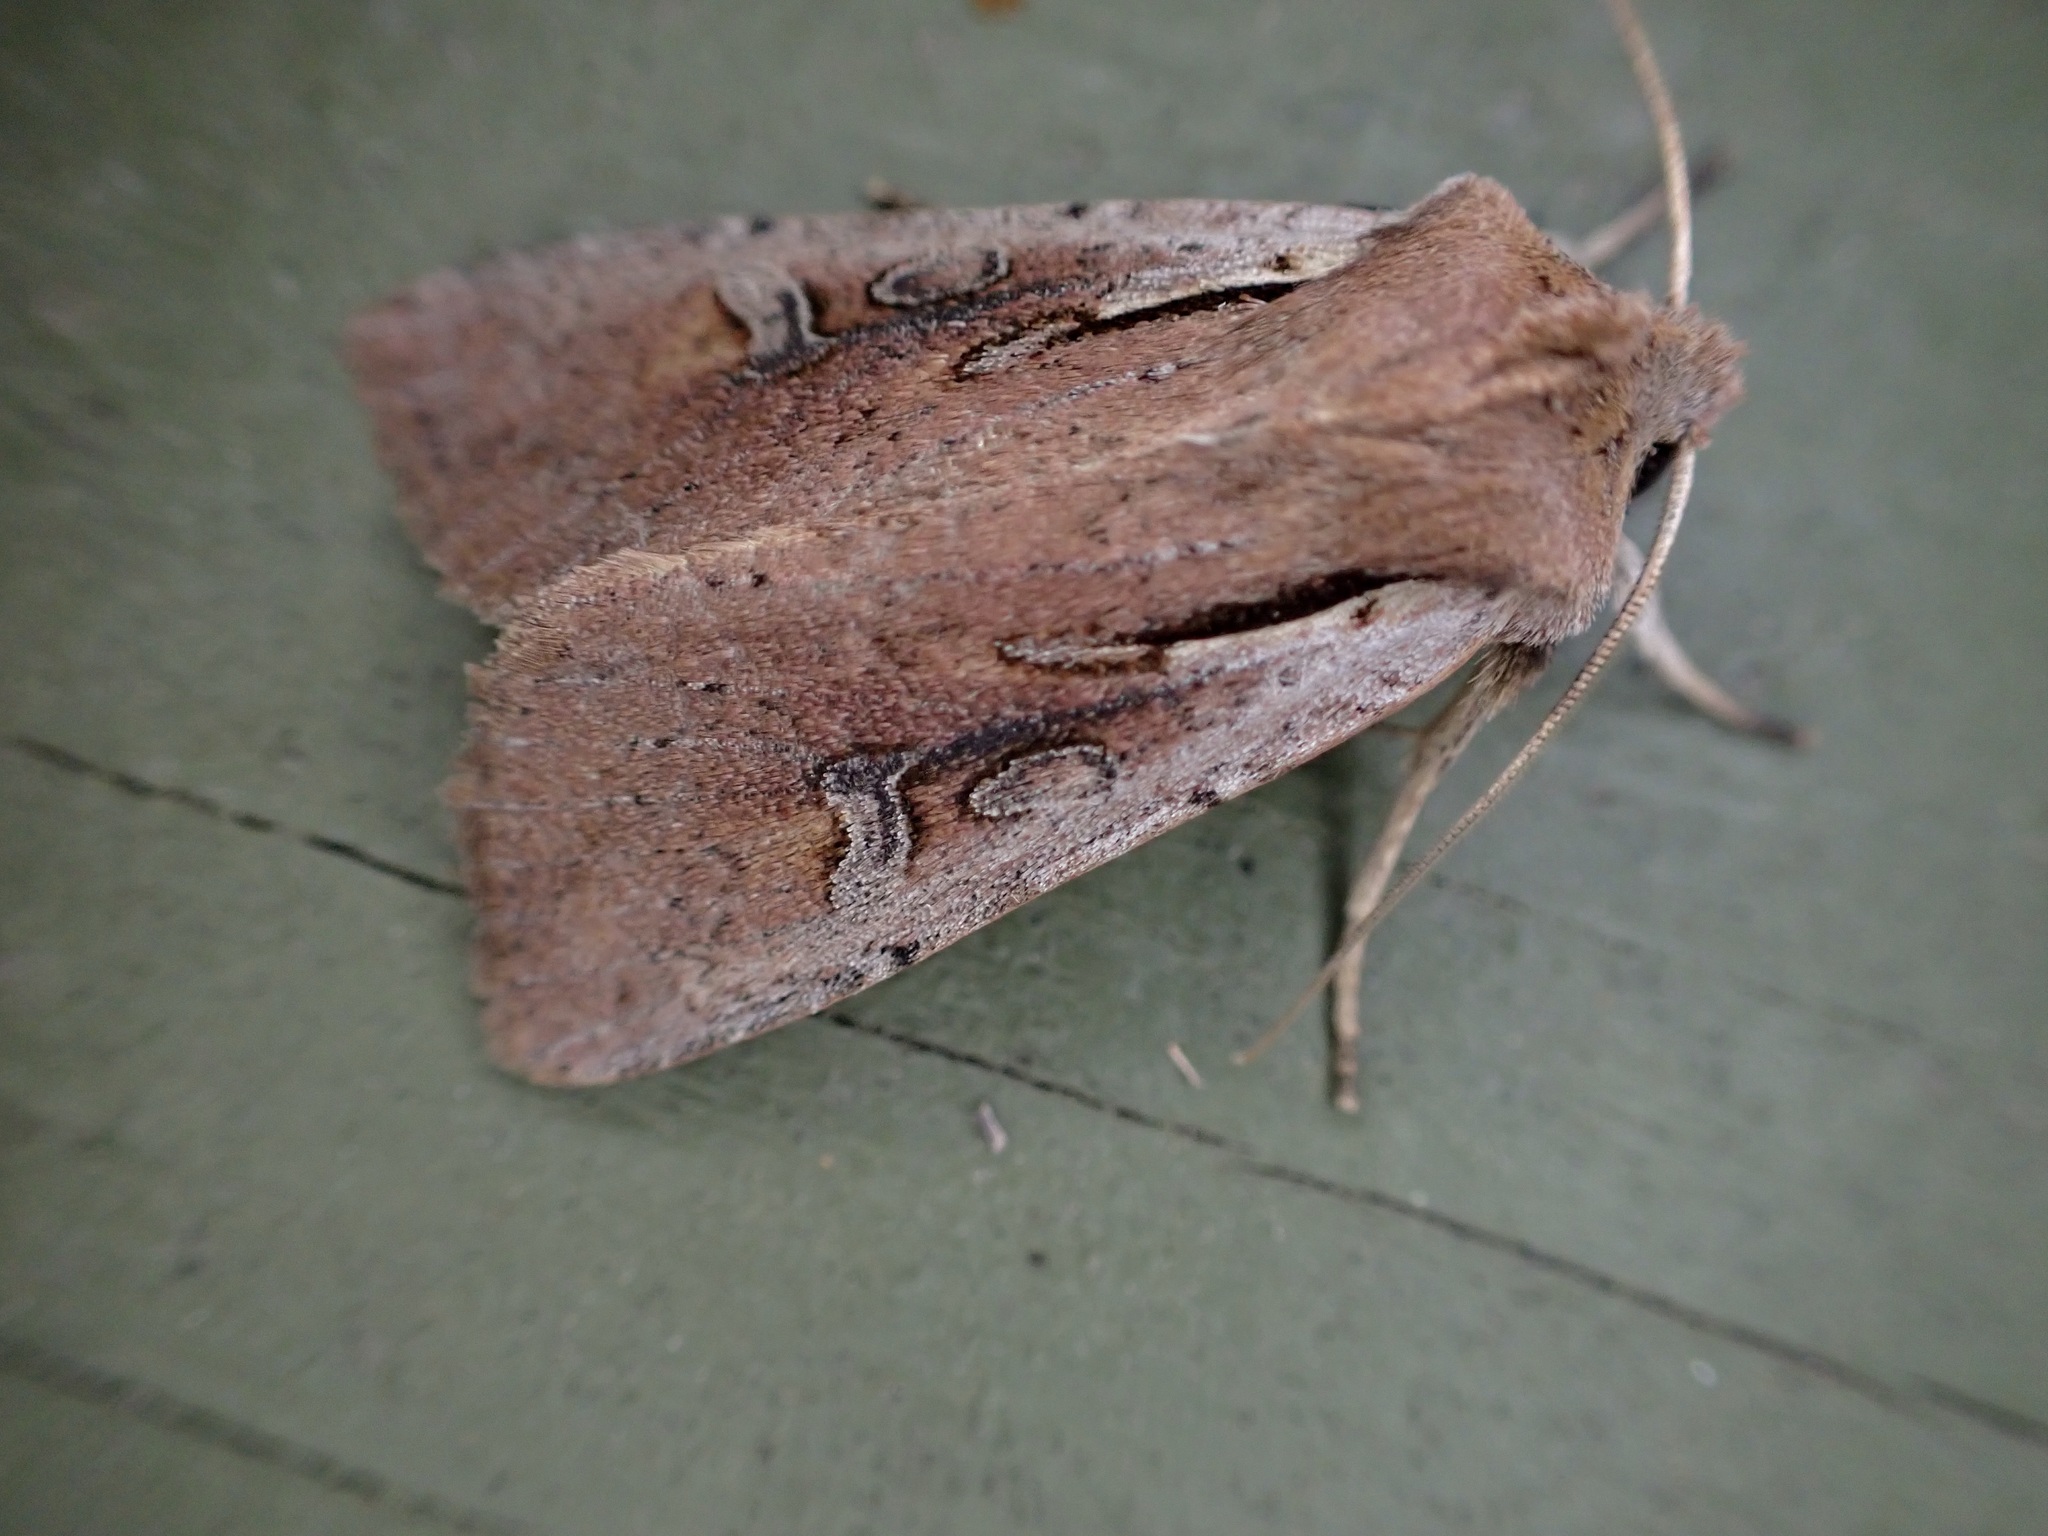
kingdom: Animalia
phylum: Arthropoda
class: Insecta
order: Lepidoptera
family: Noctuidae
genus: Ichneutica
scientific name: Ichneutica atristriga
